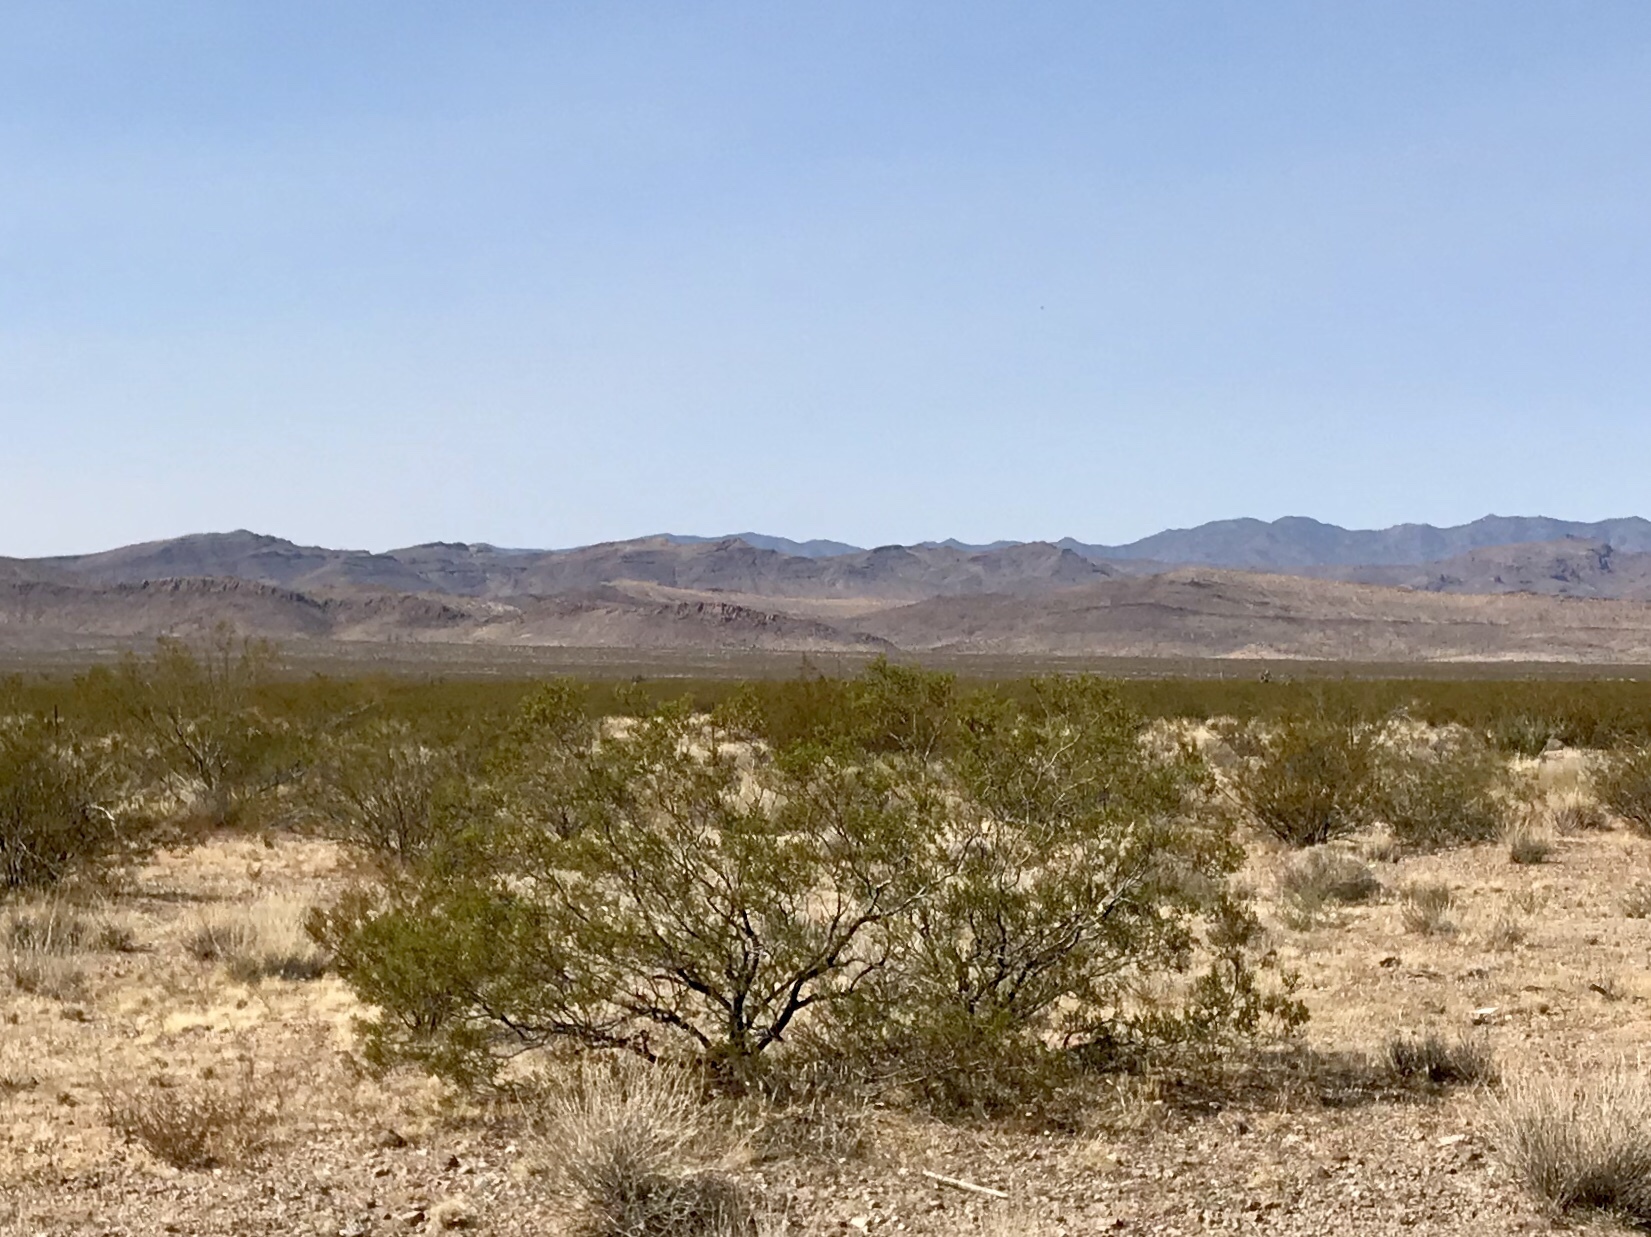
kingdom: Plantae
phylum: Tracheophyta
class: Magnoliopsida
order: Zygophyllales
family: Zygophyllaceae
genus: Larrea
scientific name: Larrea tridentata
